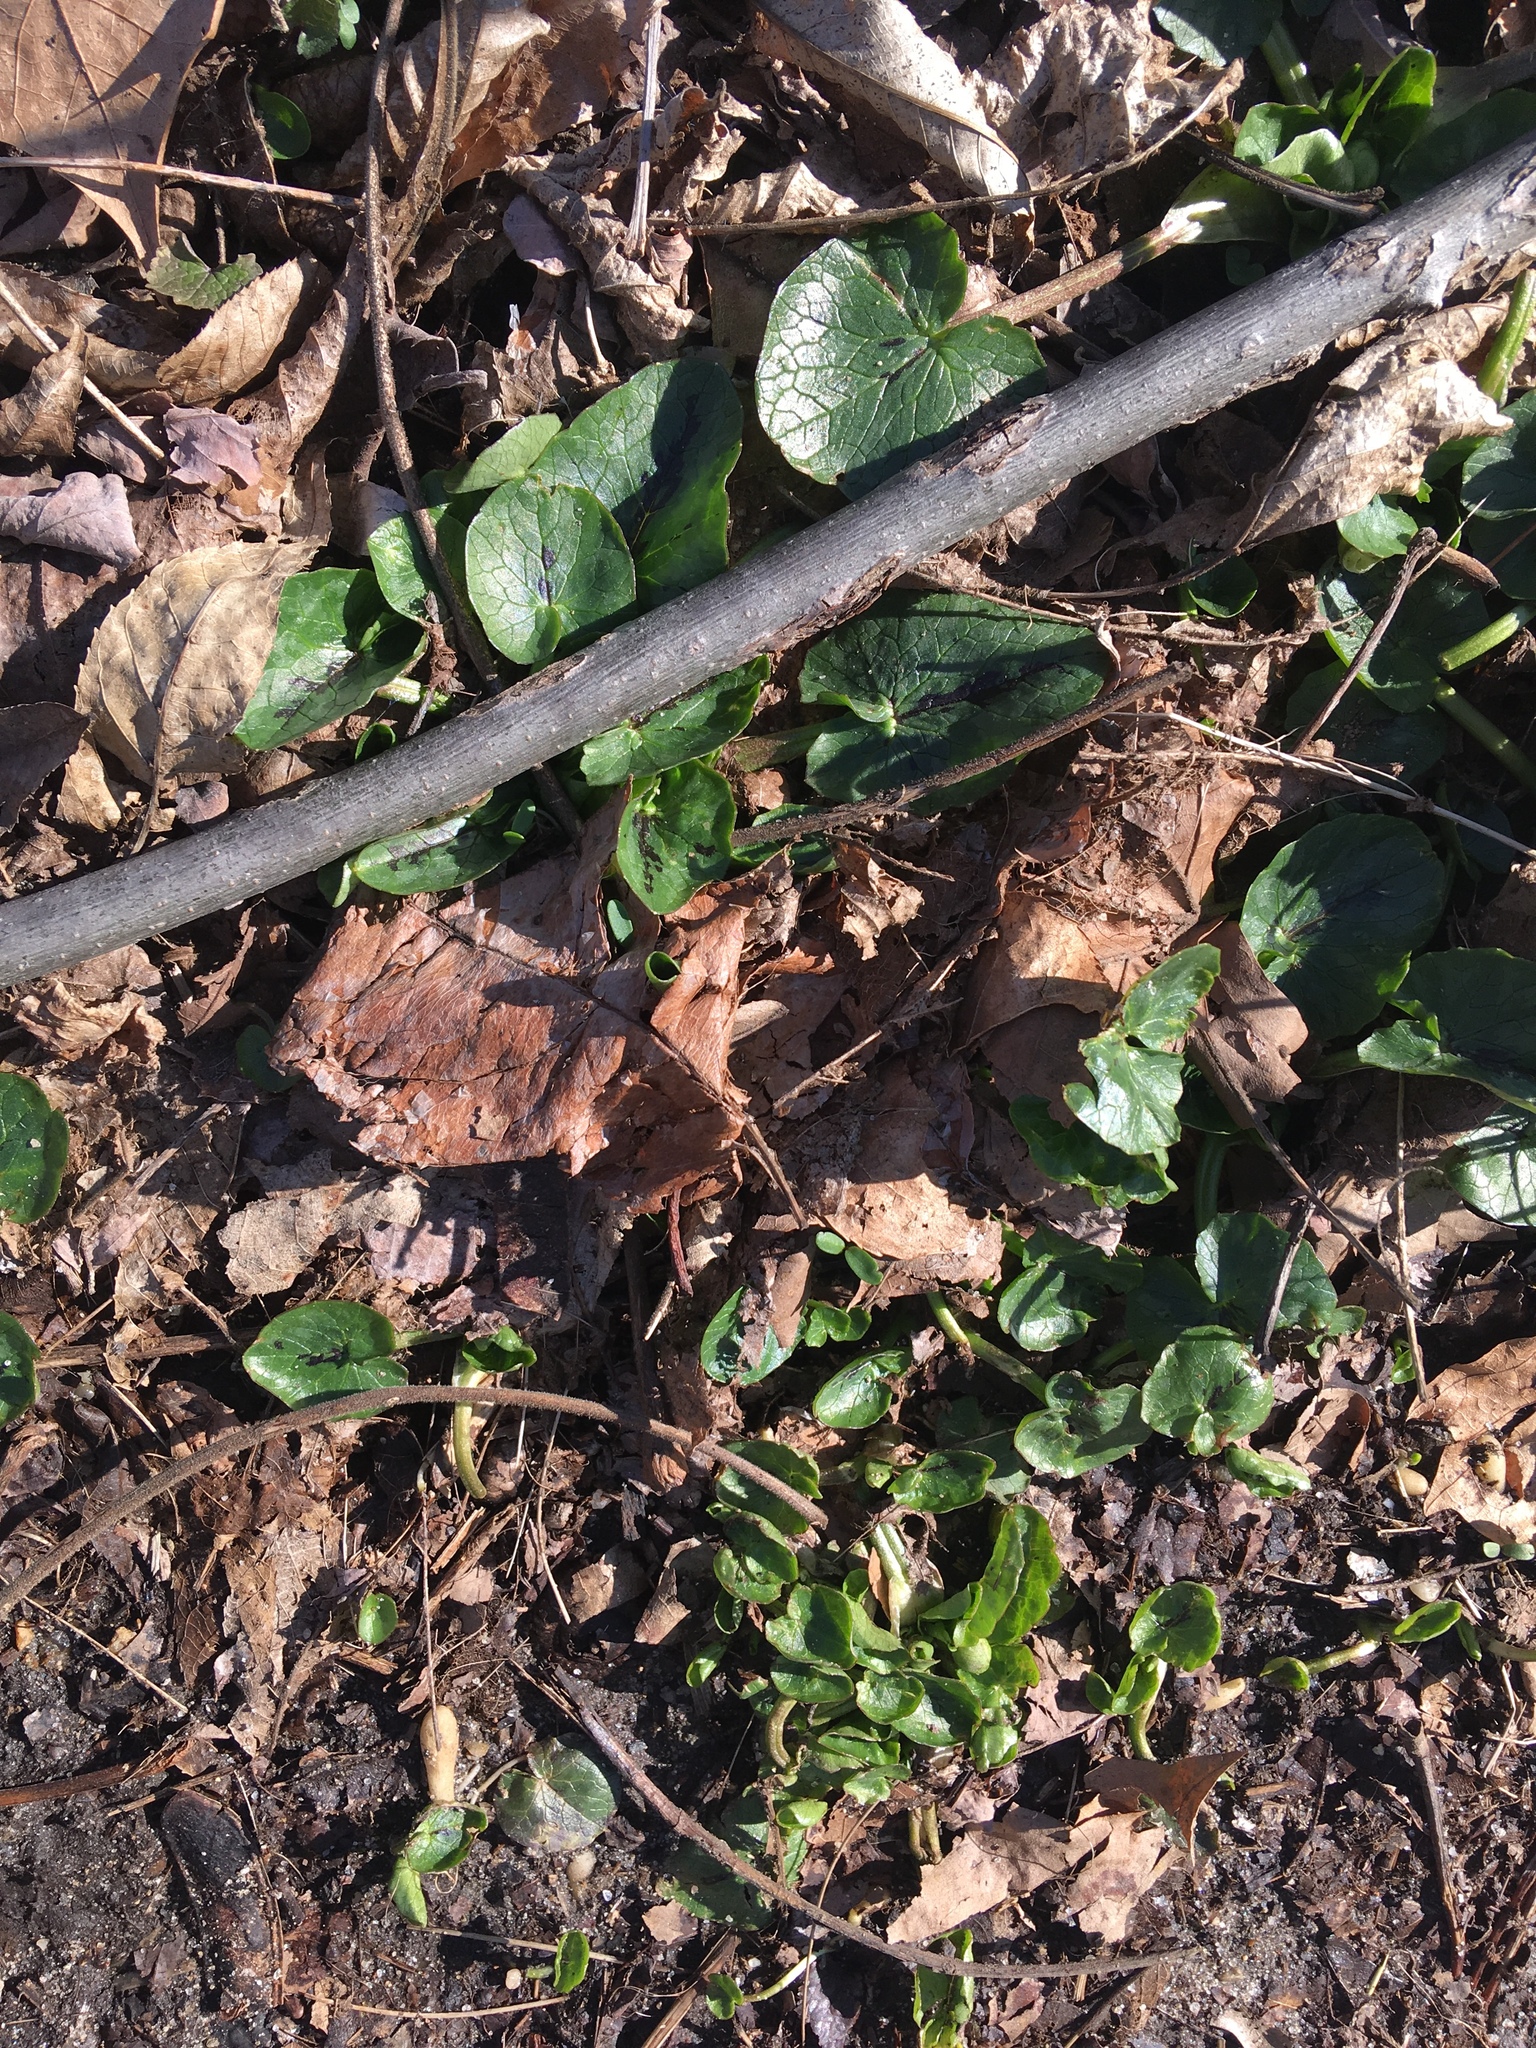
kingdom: Plantae
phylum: Tracheophyta
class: Magnoliopsida
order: Ranunculales
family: Ranunculaceae
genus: Ficaria
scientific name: Ficaria verna
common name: Lesser celandine
